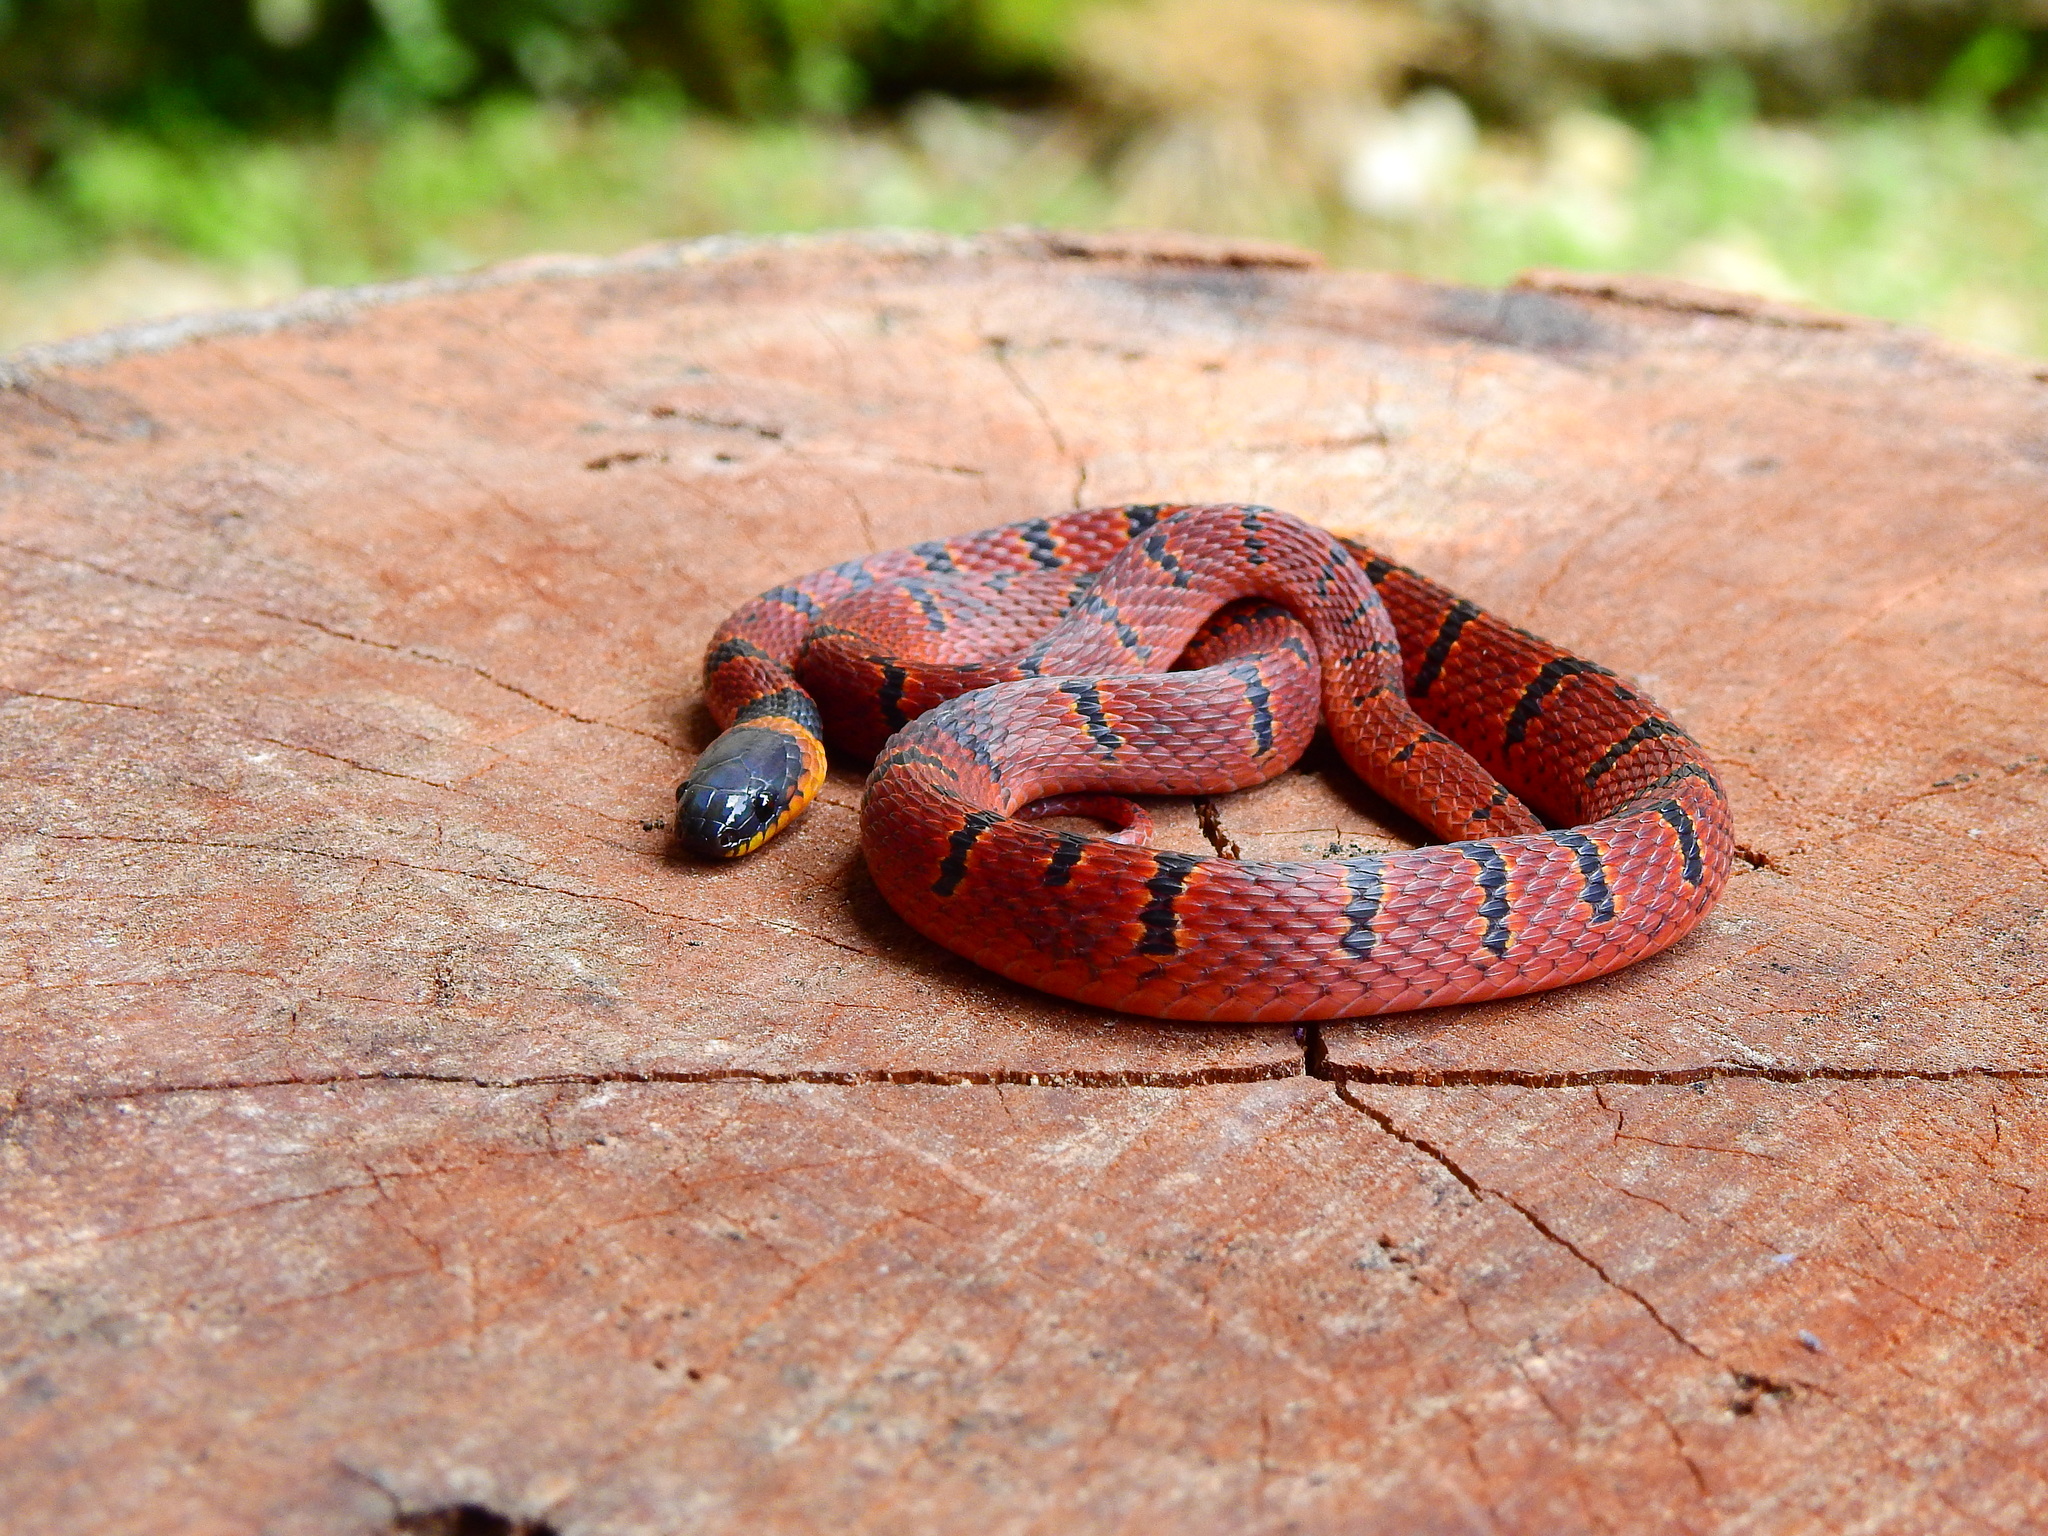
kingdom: Animalia
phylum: Chordata
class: Squamata
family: Colubridae
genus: Ninia
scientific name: Ninia sebae
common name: Redback coffee snake
